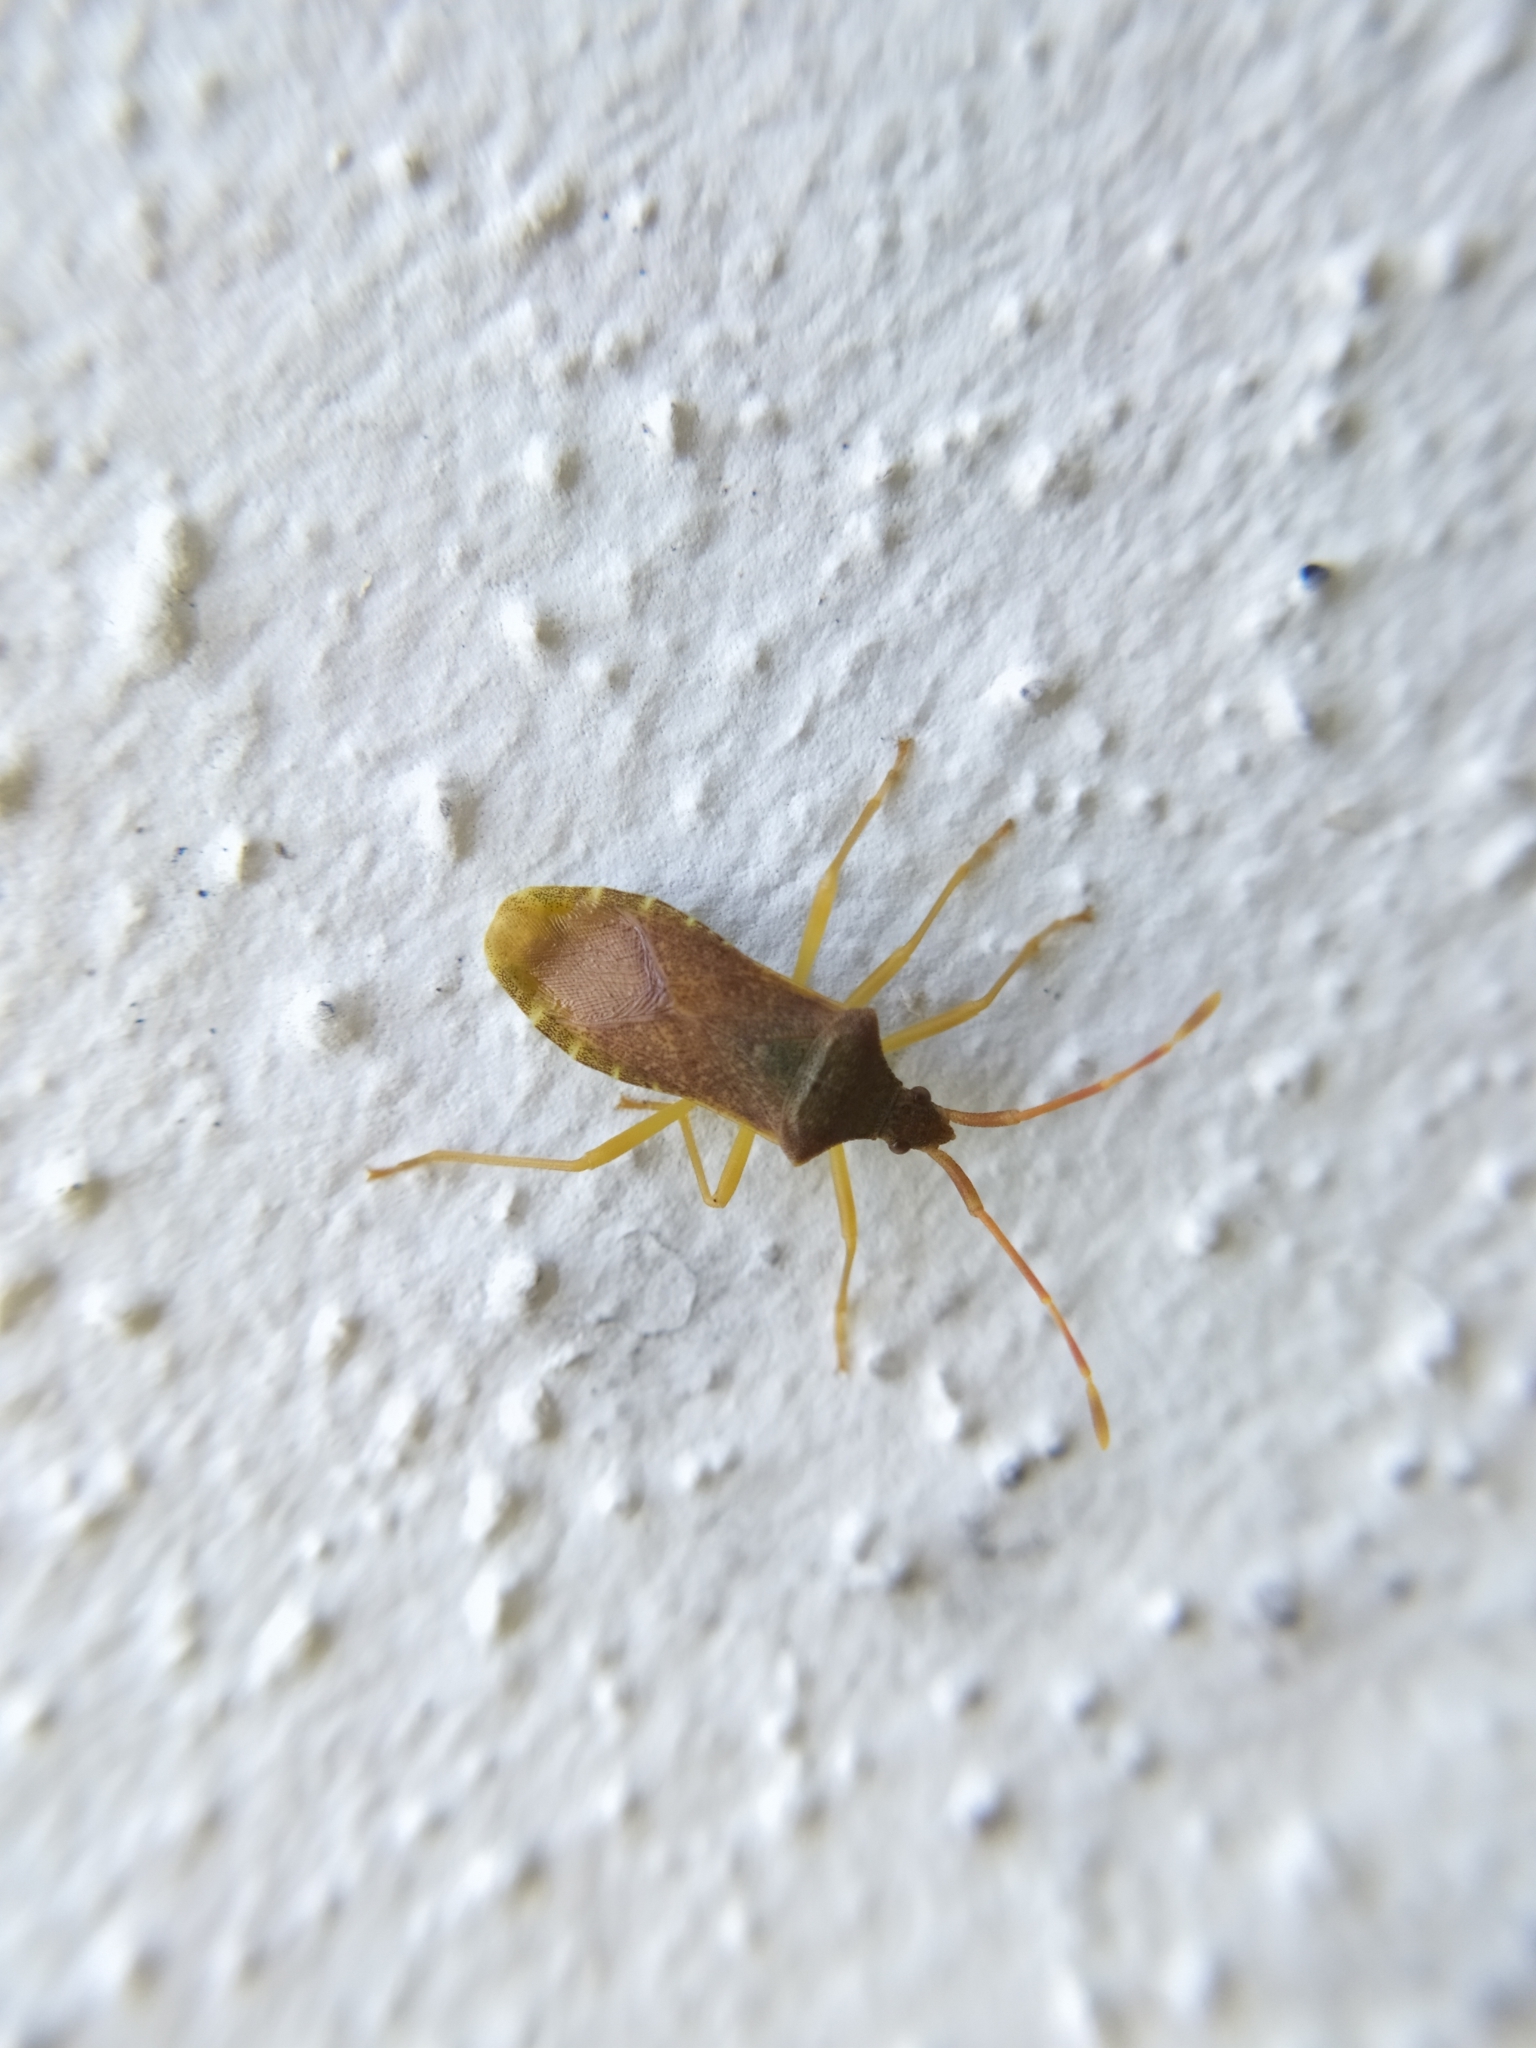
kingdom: Animalia
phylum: Arthropoda
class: Insecta
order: Hemiptera
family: Coreidae
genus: Gonocerus
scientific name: Gonocerus acuteangulatus
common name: Box bug
